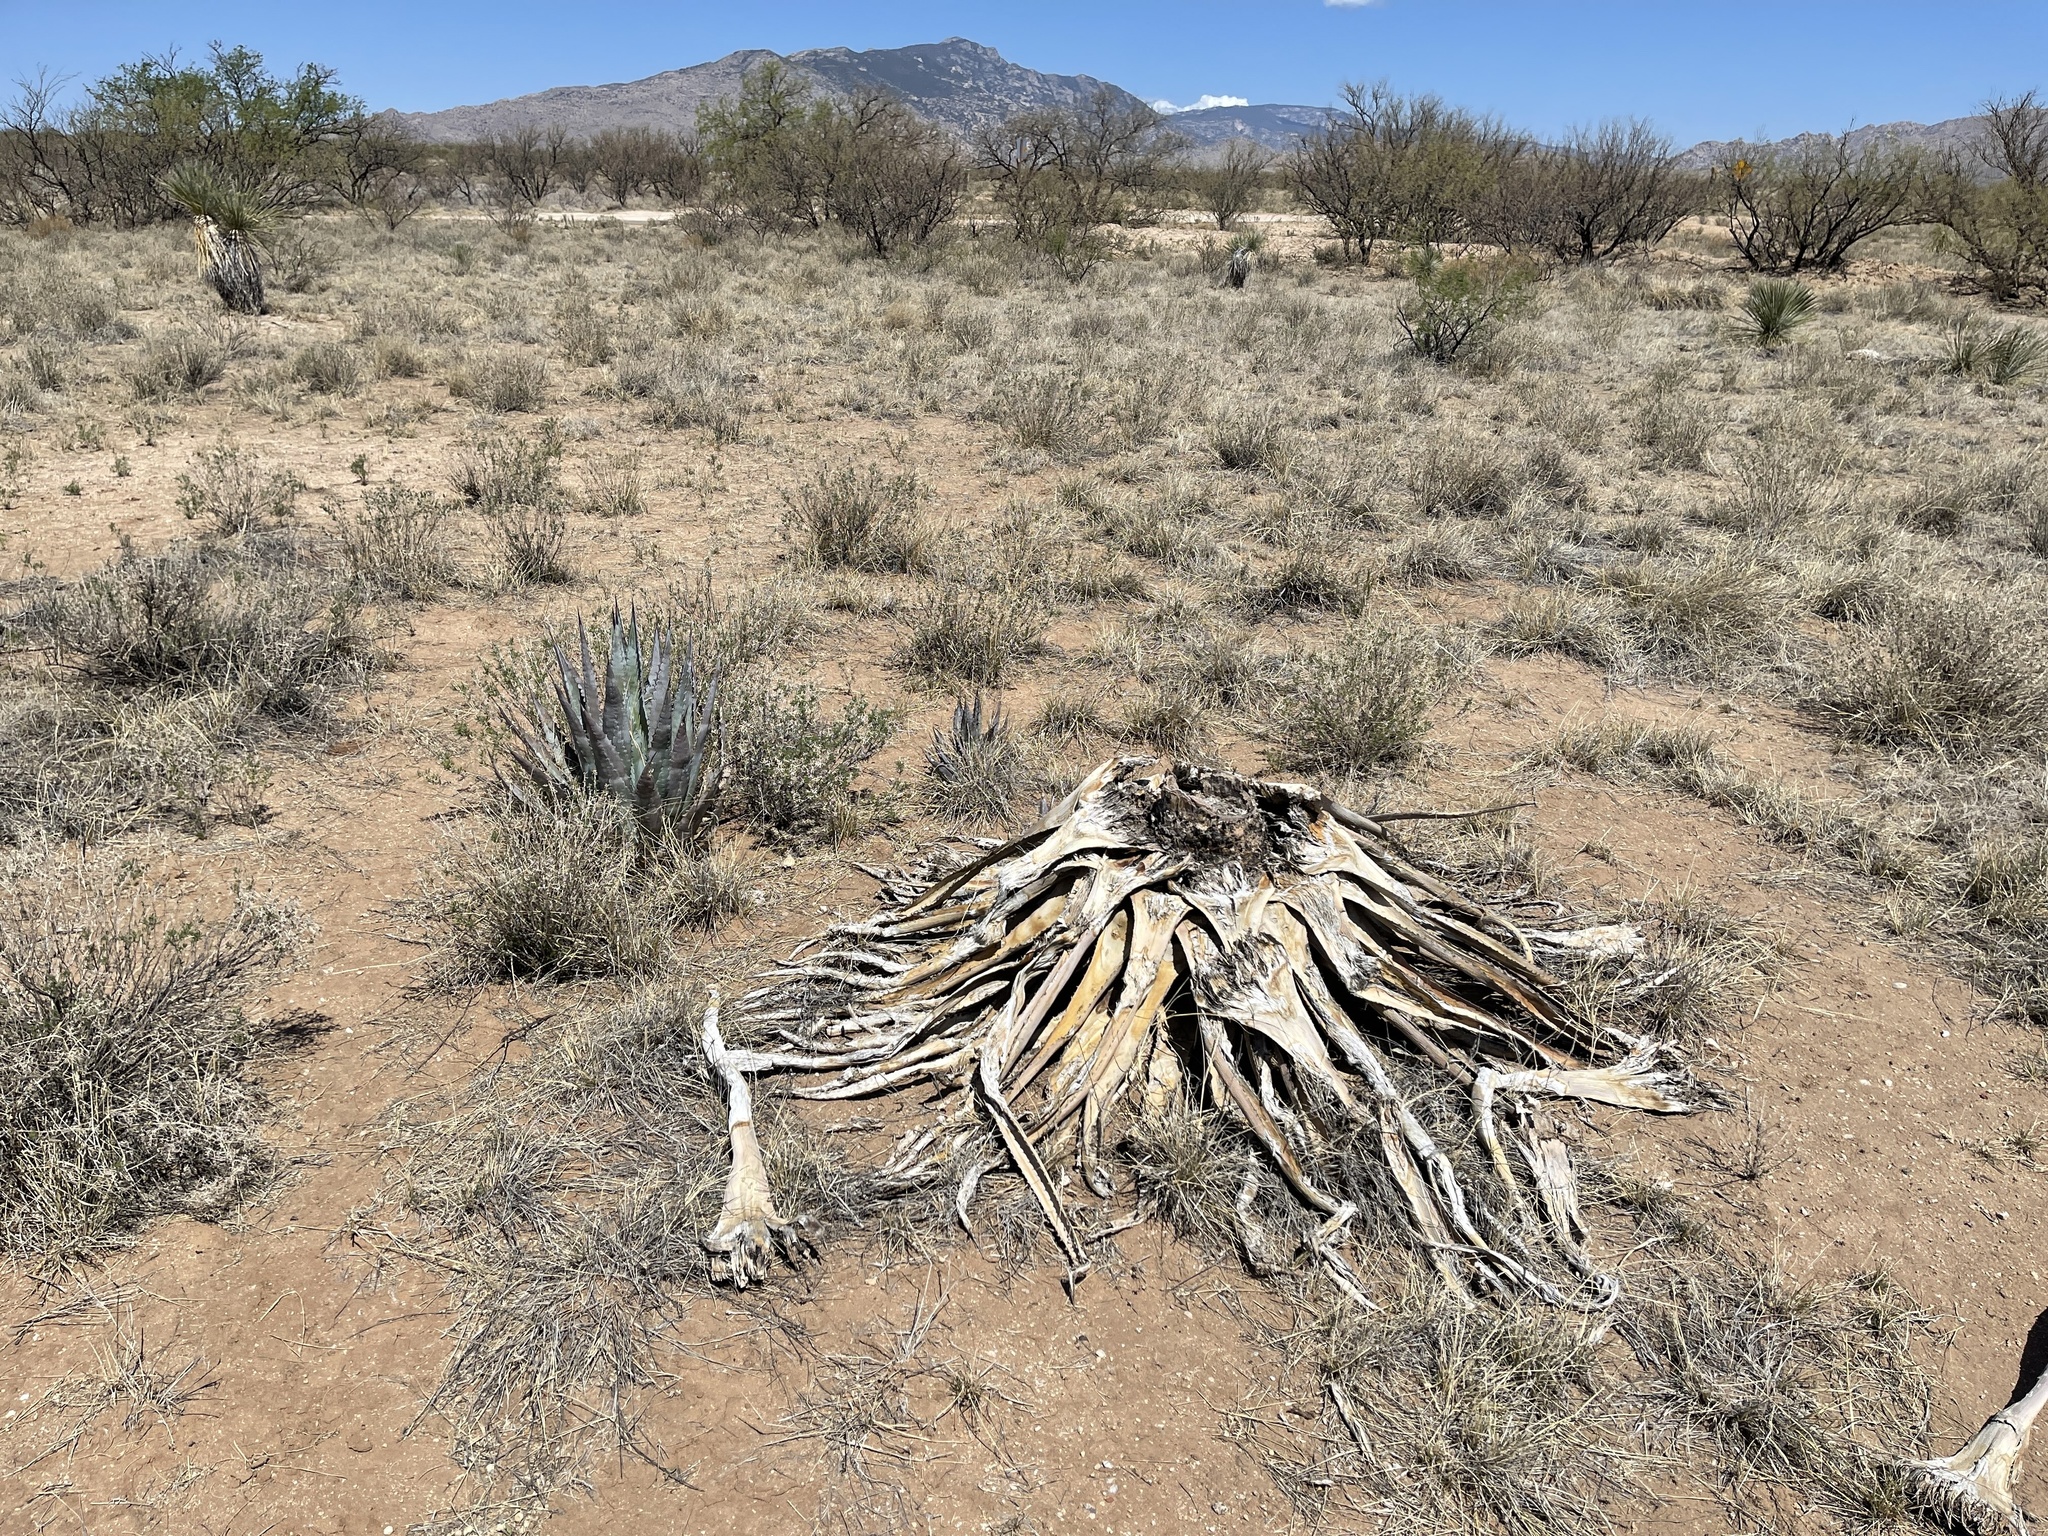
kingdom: Plantae
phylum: Tracheophyta
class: Liliopsida
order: Asparagales
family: Asparagaceae
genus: Agave
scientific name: Agave palmeri
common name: Palmer agave
